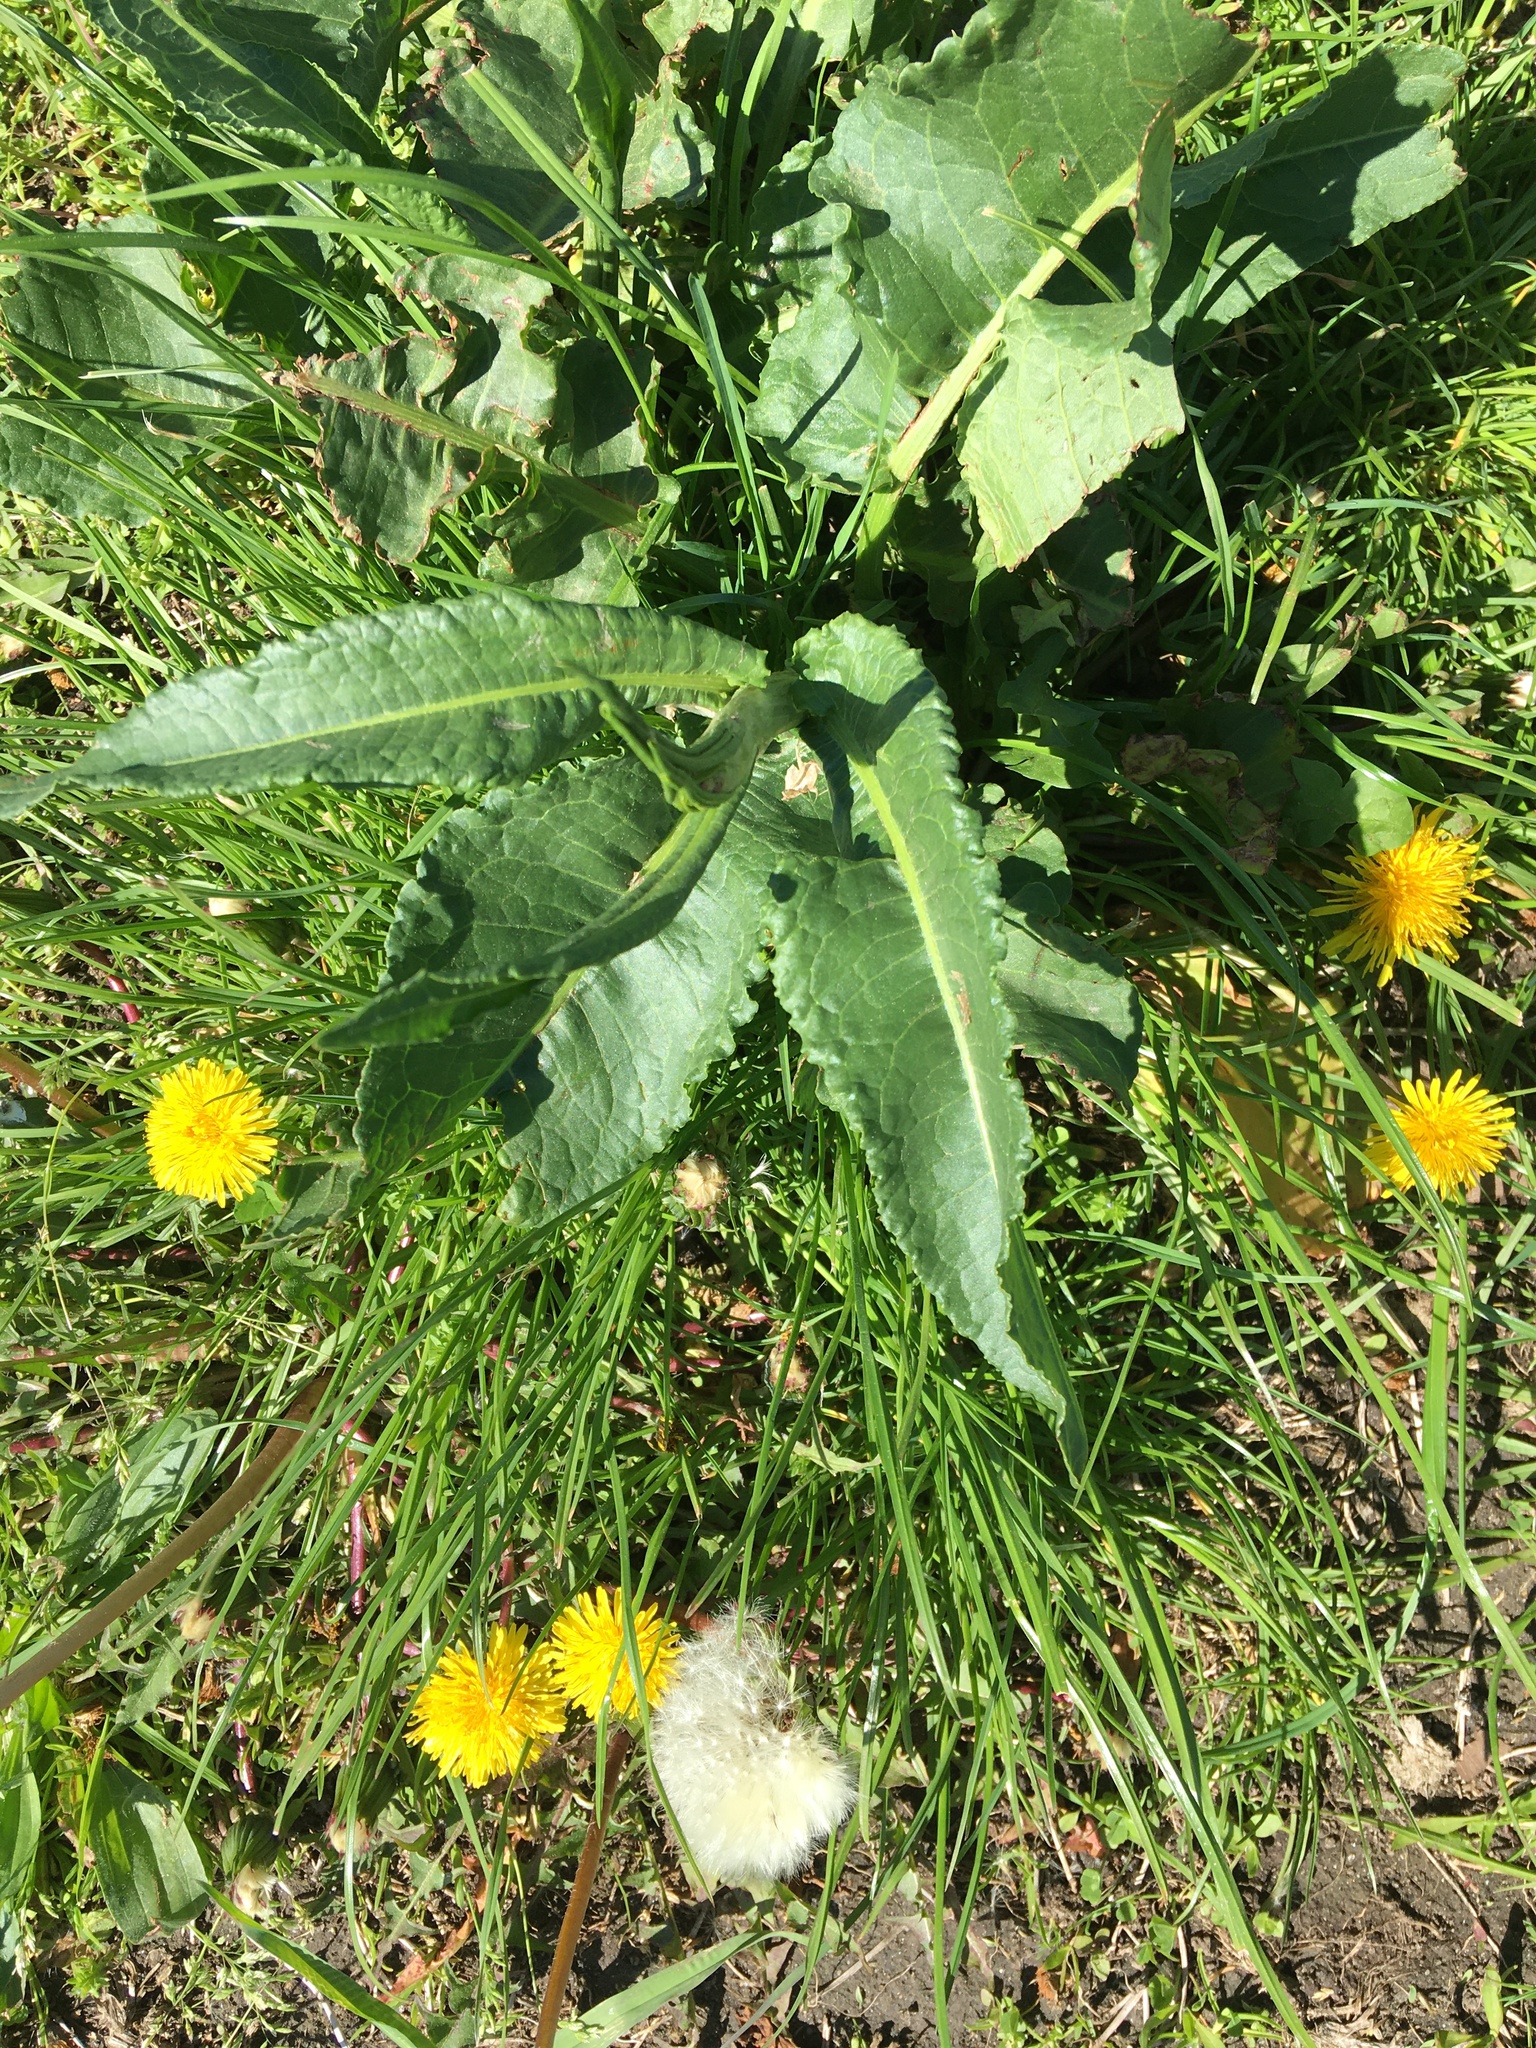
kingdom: Plantae
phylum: Tracheophyta
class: Magnoliopsida
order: Caryophyllales
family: Polygonaceae
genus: Rumex
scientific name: Rumex obtusifolius
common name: Bitter dock
